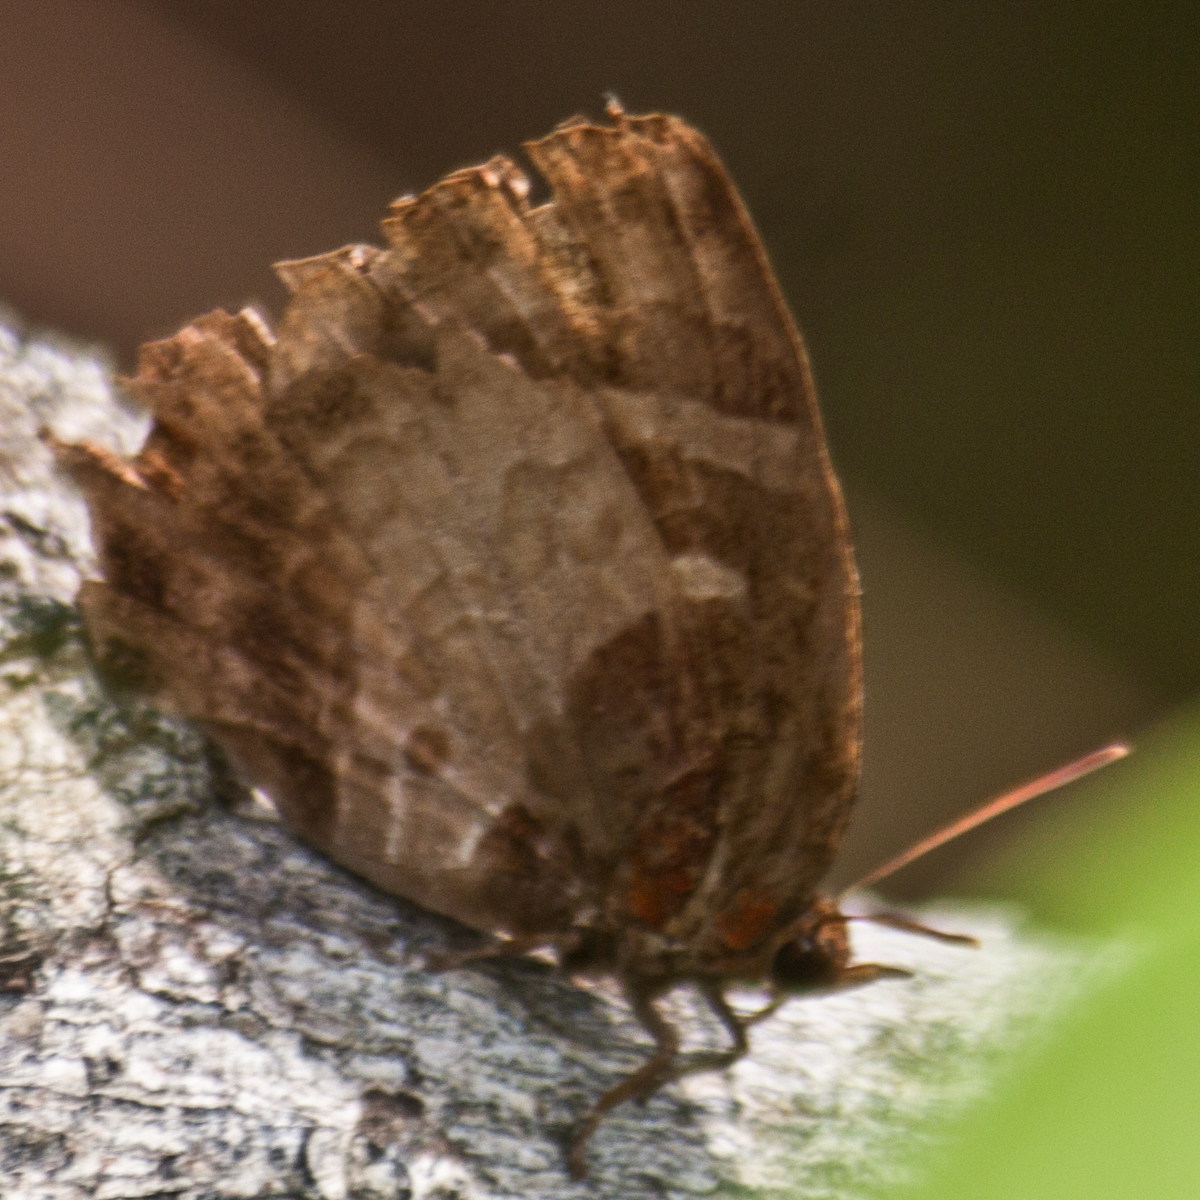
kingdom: Animalia
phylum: Arthropoda
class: Insecta
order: Lepidoptera
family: Lycaenidae
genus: Flos
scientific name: Flos apidanus
